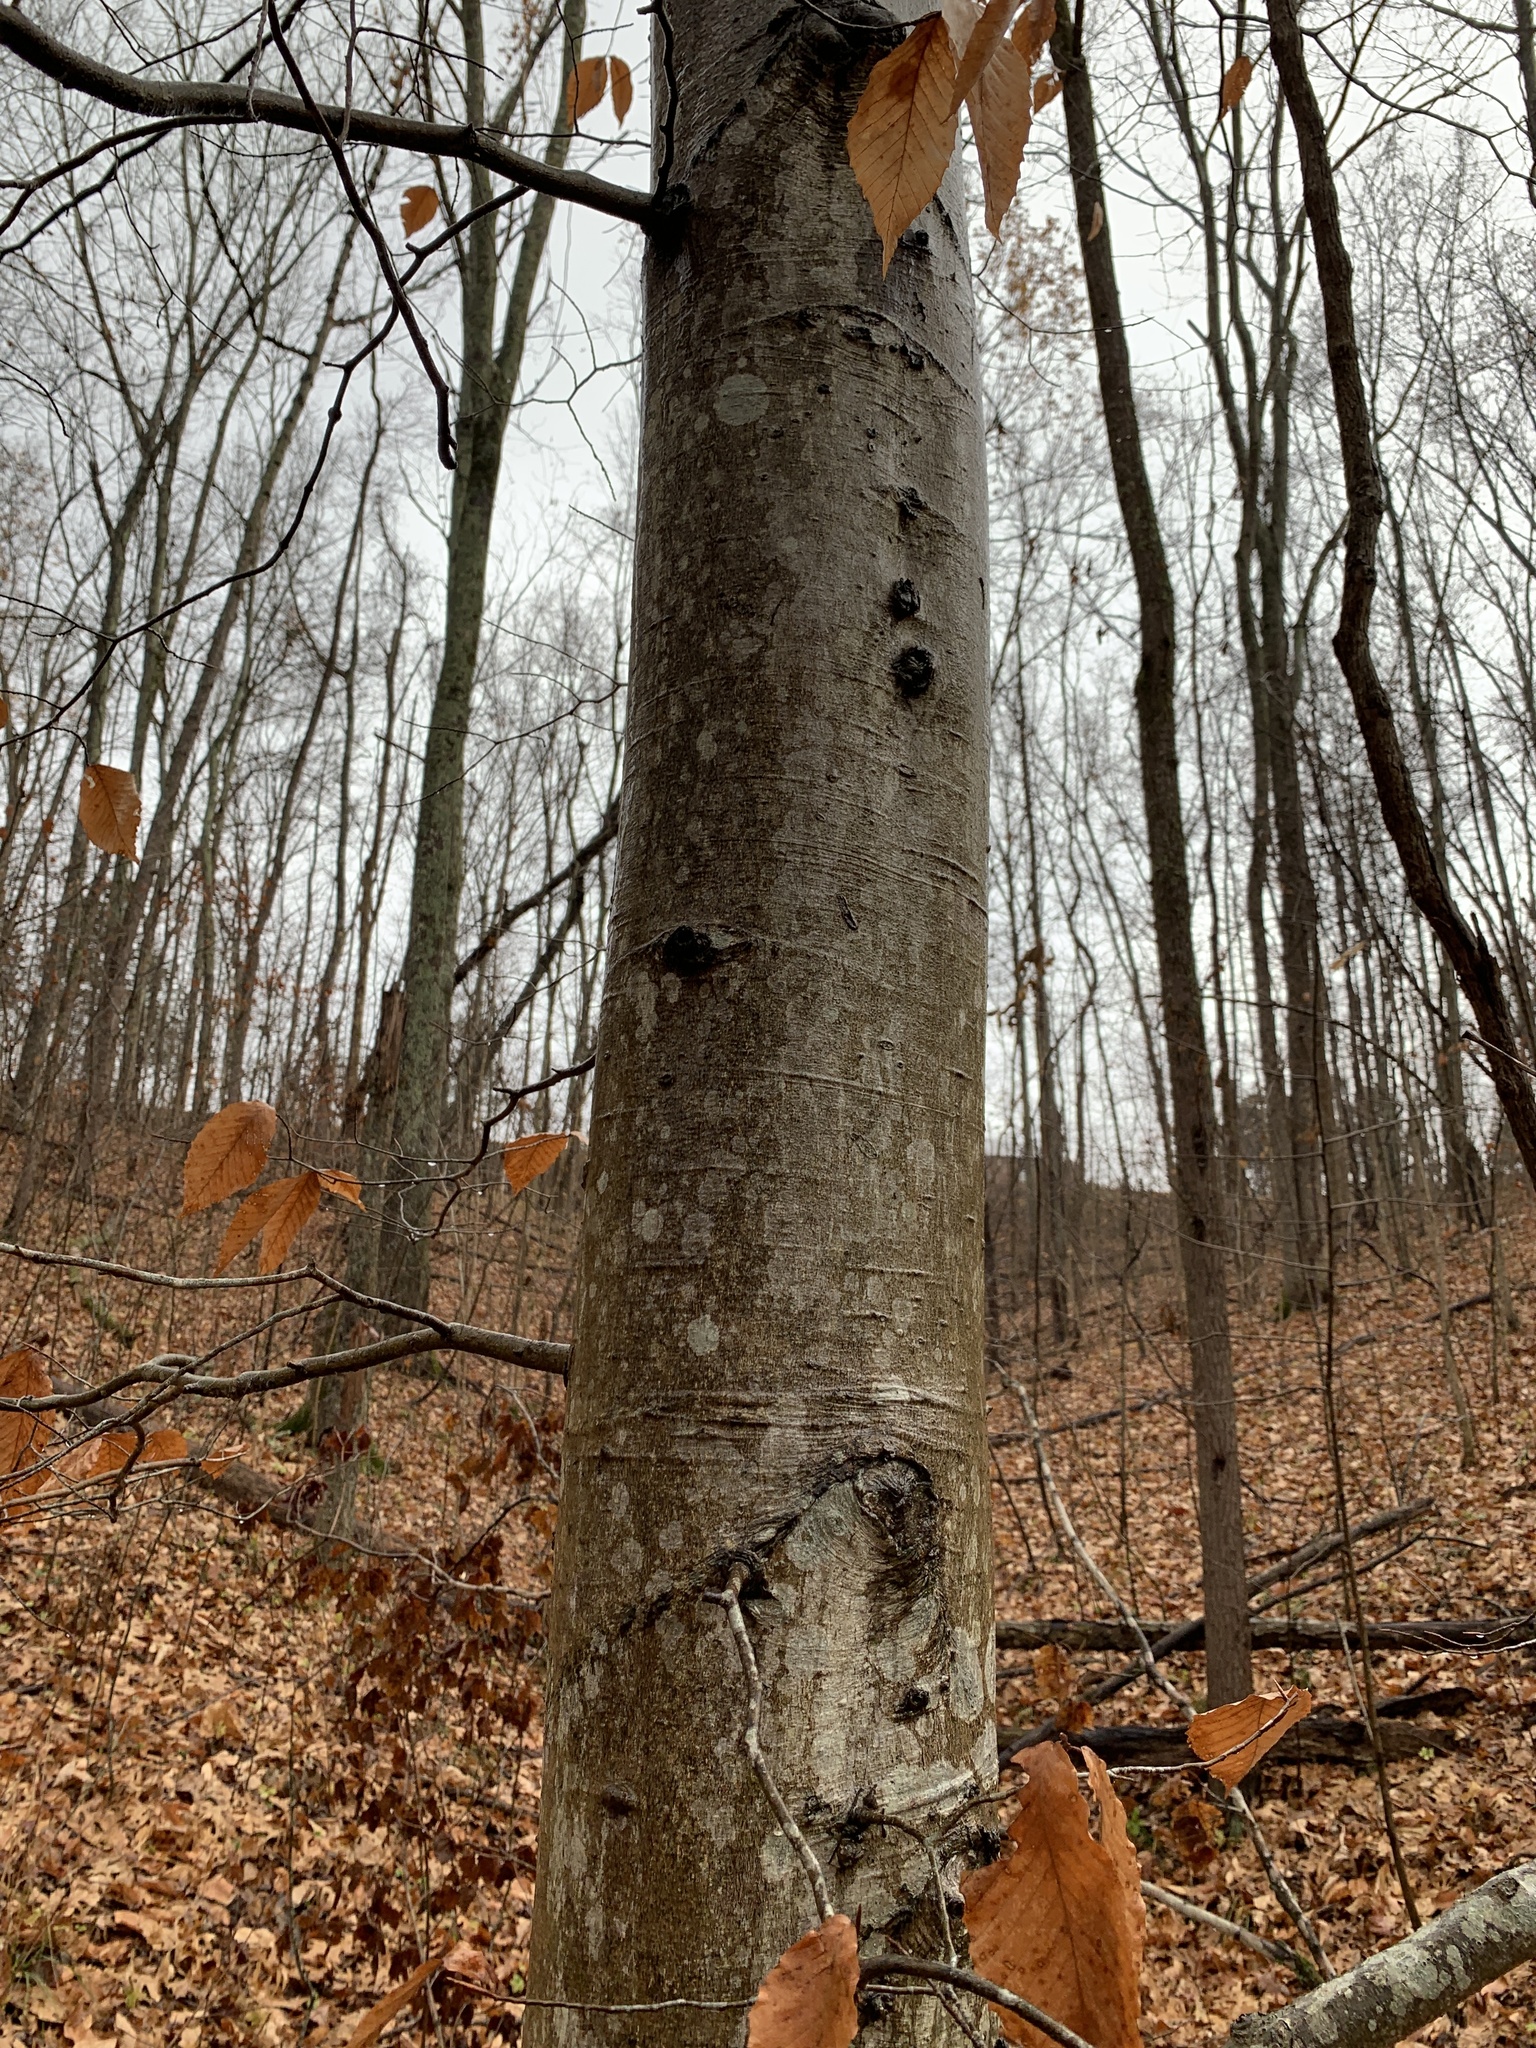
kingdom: Plantae
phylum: Tracheophyta
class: Magnoliopsida
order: Fagales
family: Fagaceae
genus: Fagus
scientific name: Fagus grandifolia
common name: American beech
